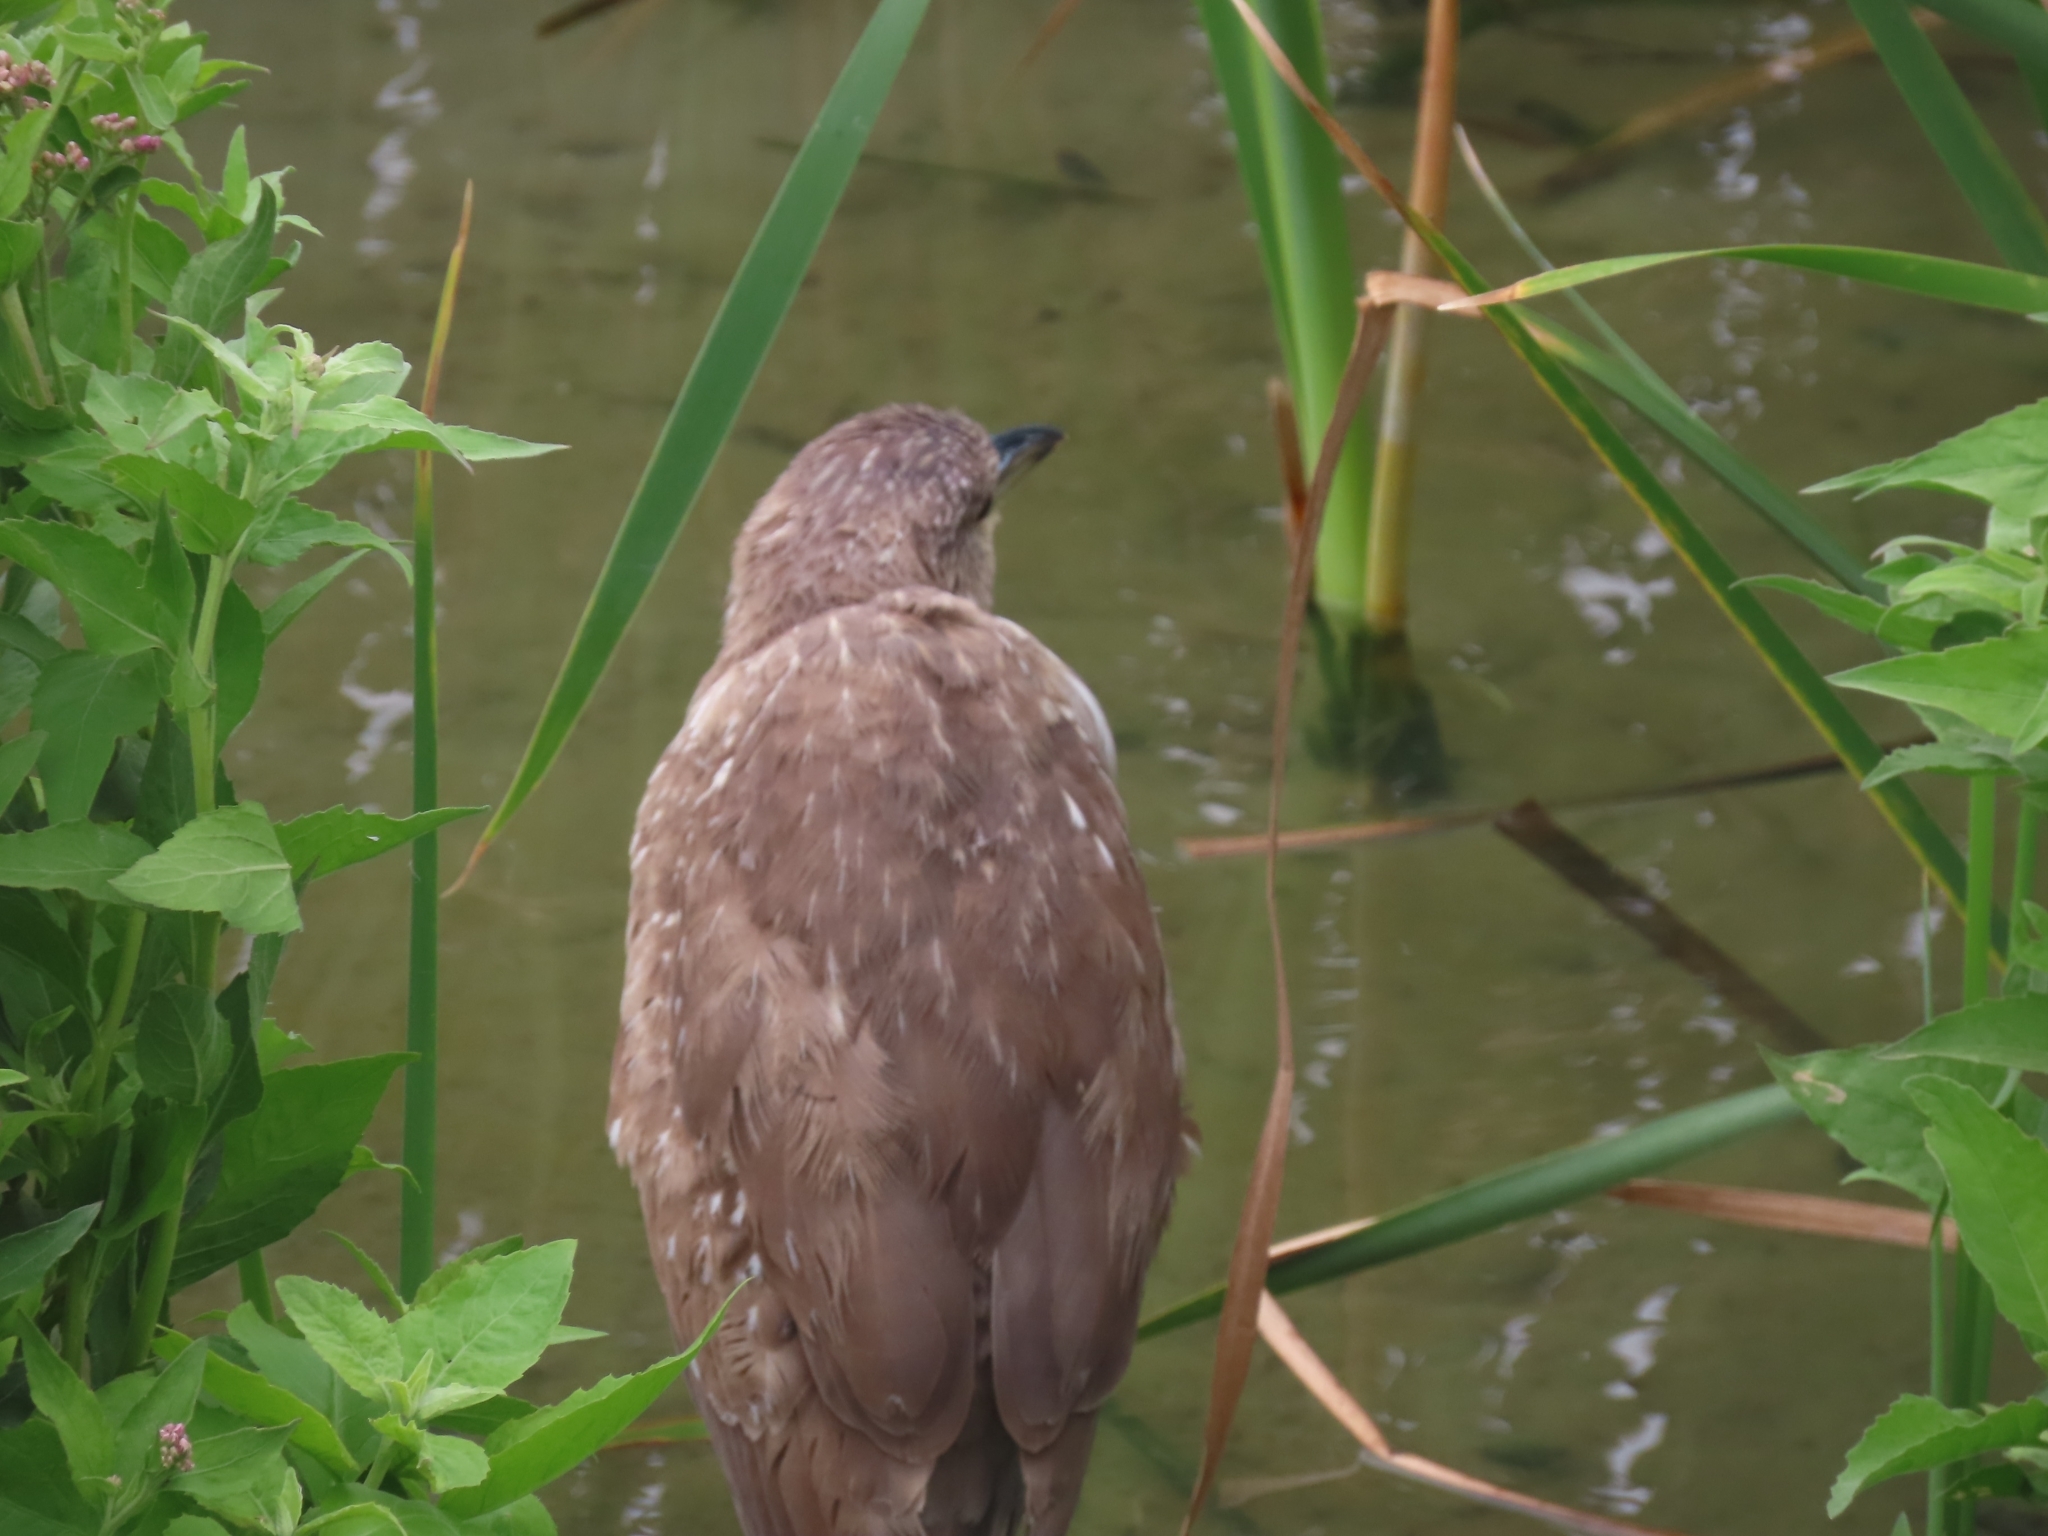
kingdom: Animalia
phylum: Chordata
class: Aves
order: Pelecaniformes
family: Ardeidae
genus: Nycticorax
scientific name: Nycticorax nycticorax
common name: Black-crowned night heron
